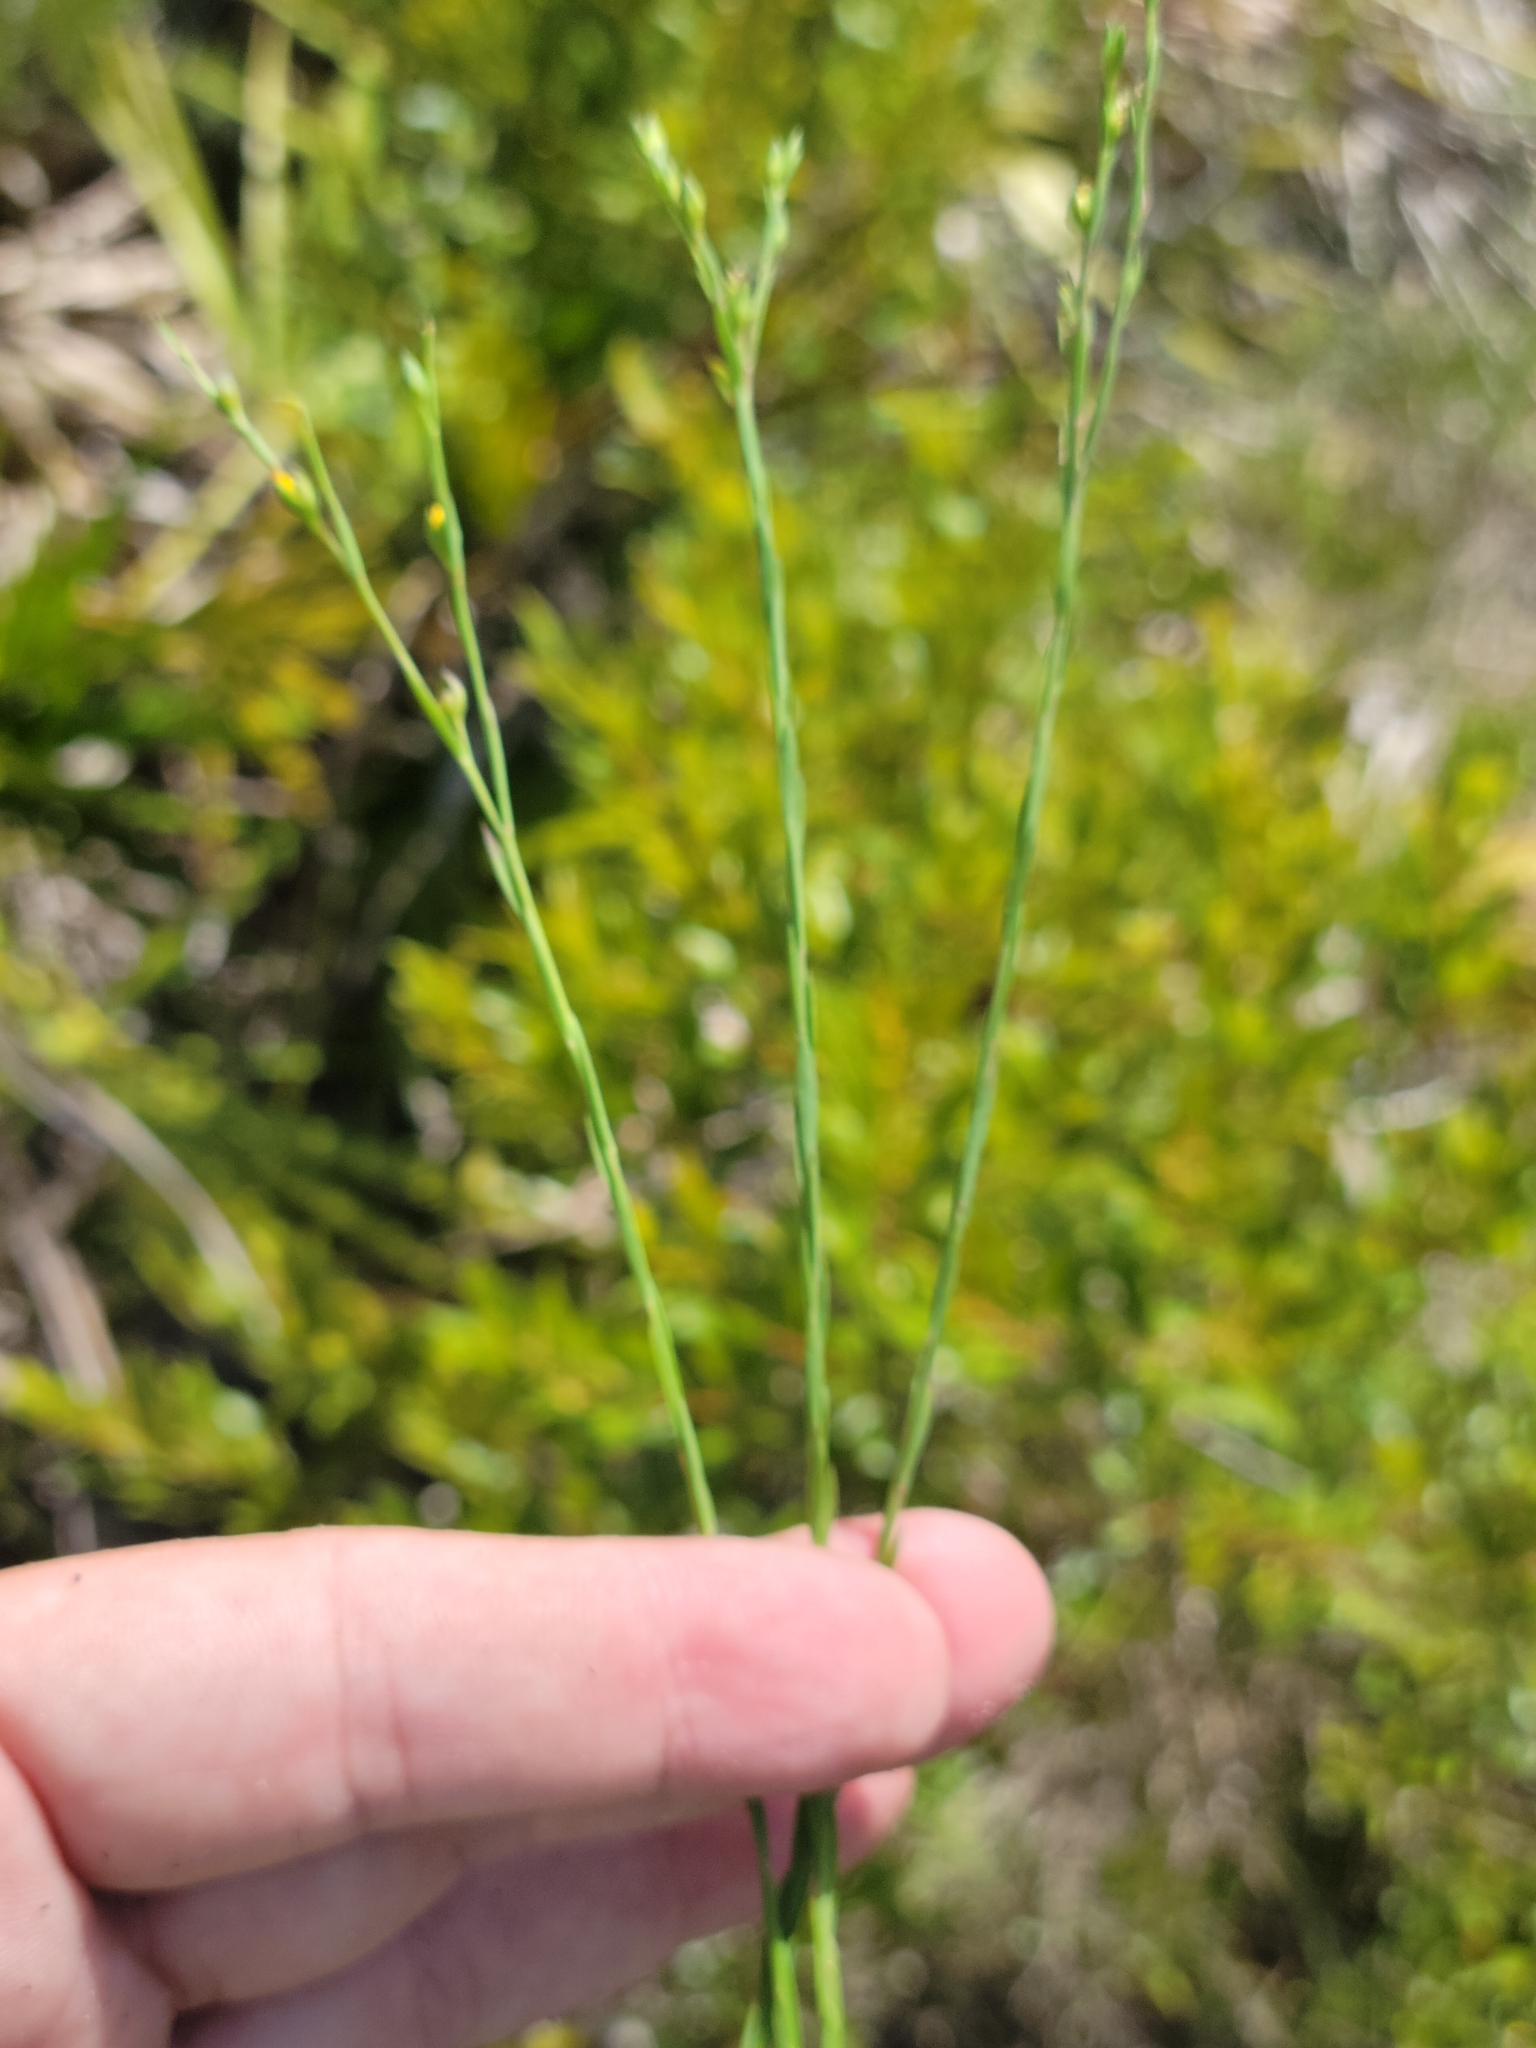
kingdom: Plantae
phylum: Tracheophyta
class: Magnoliopsida
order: Malpighiales
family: Linaceae
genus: Linum
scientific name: Linum floridanum
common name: Florida yellow flax
